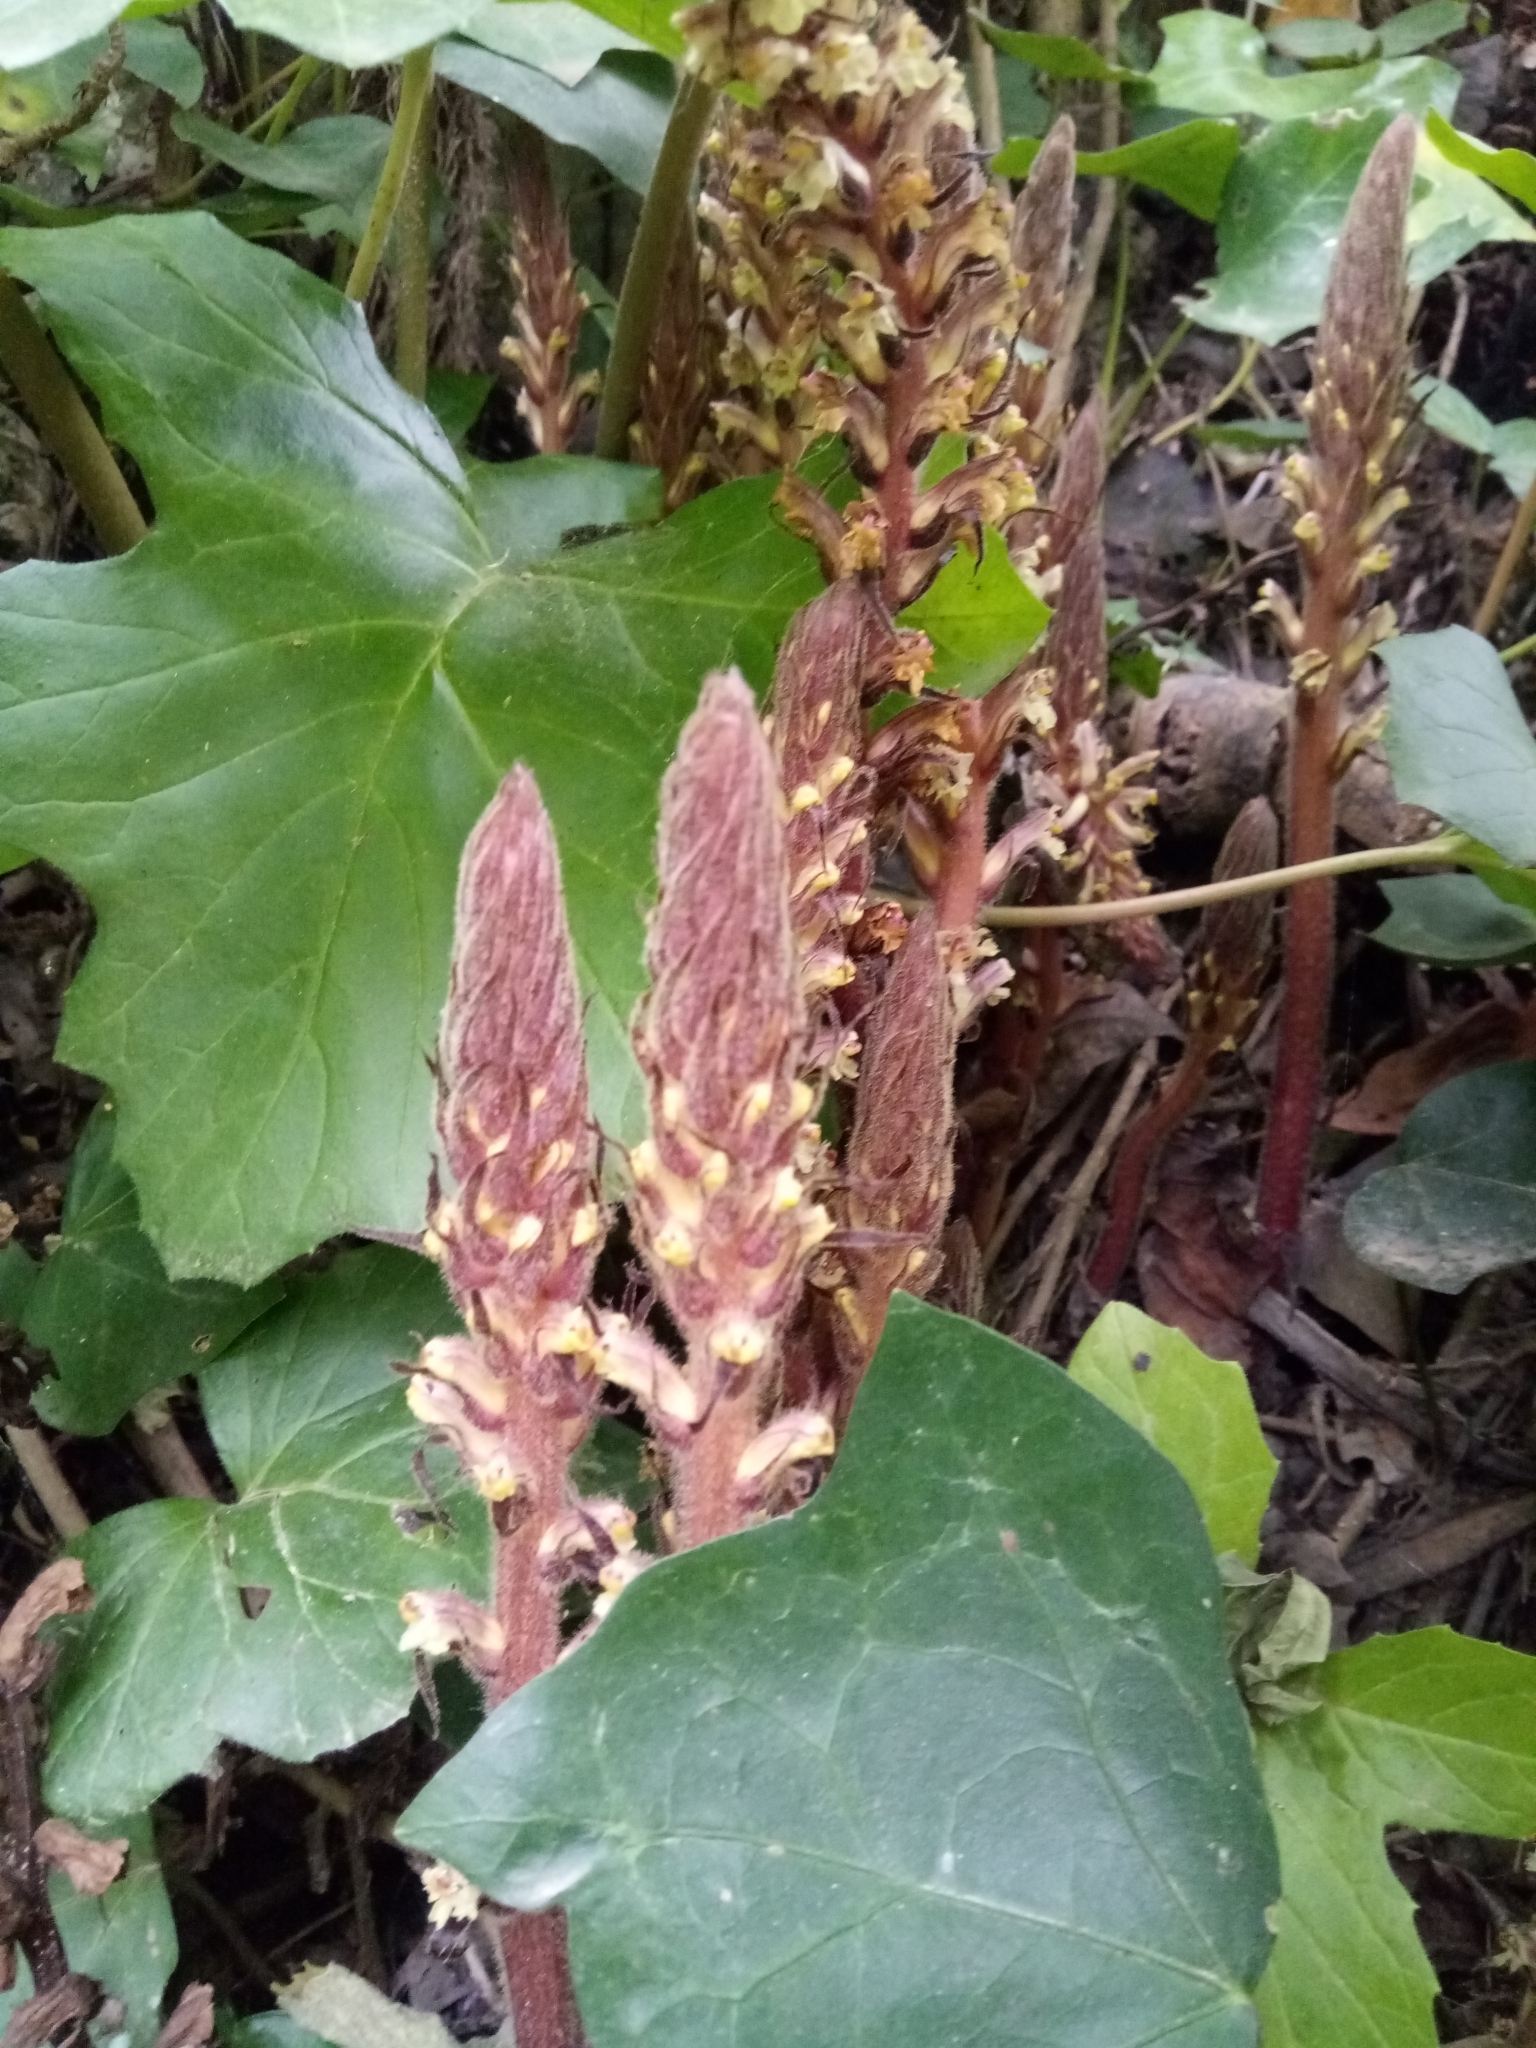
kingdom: Plantae
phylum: Tracheophyta
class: Magnoliopsida
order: Lamiales
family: Orobanchaceae
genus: Orobanche
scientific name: Orobanche hederae
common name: Ivy broomrape
